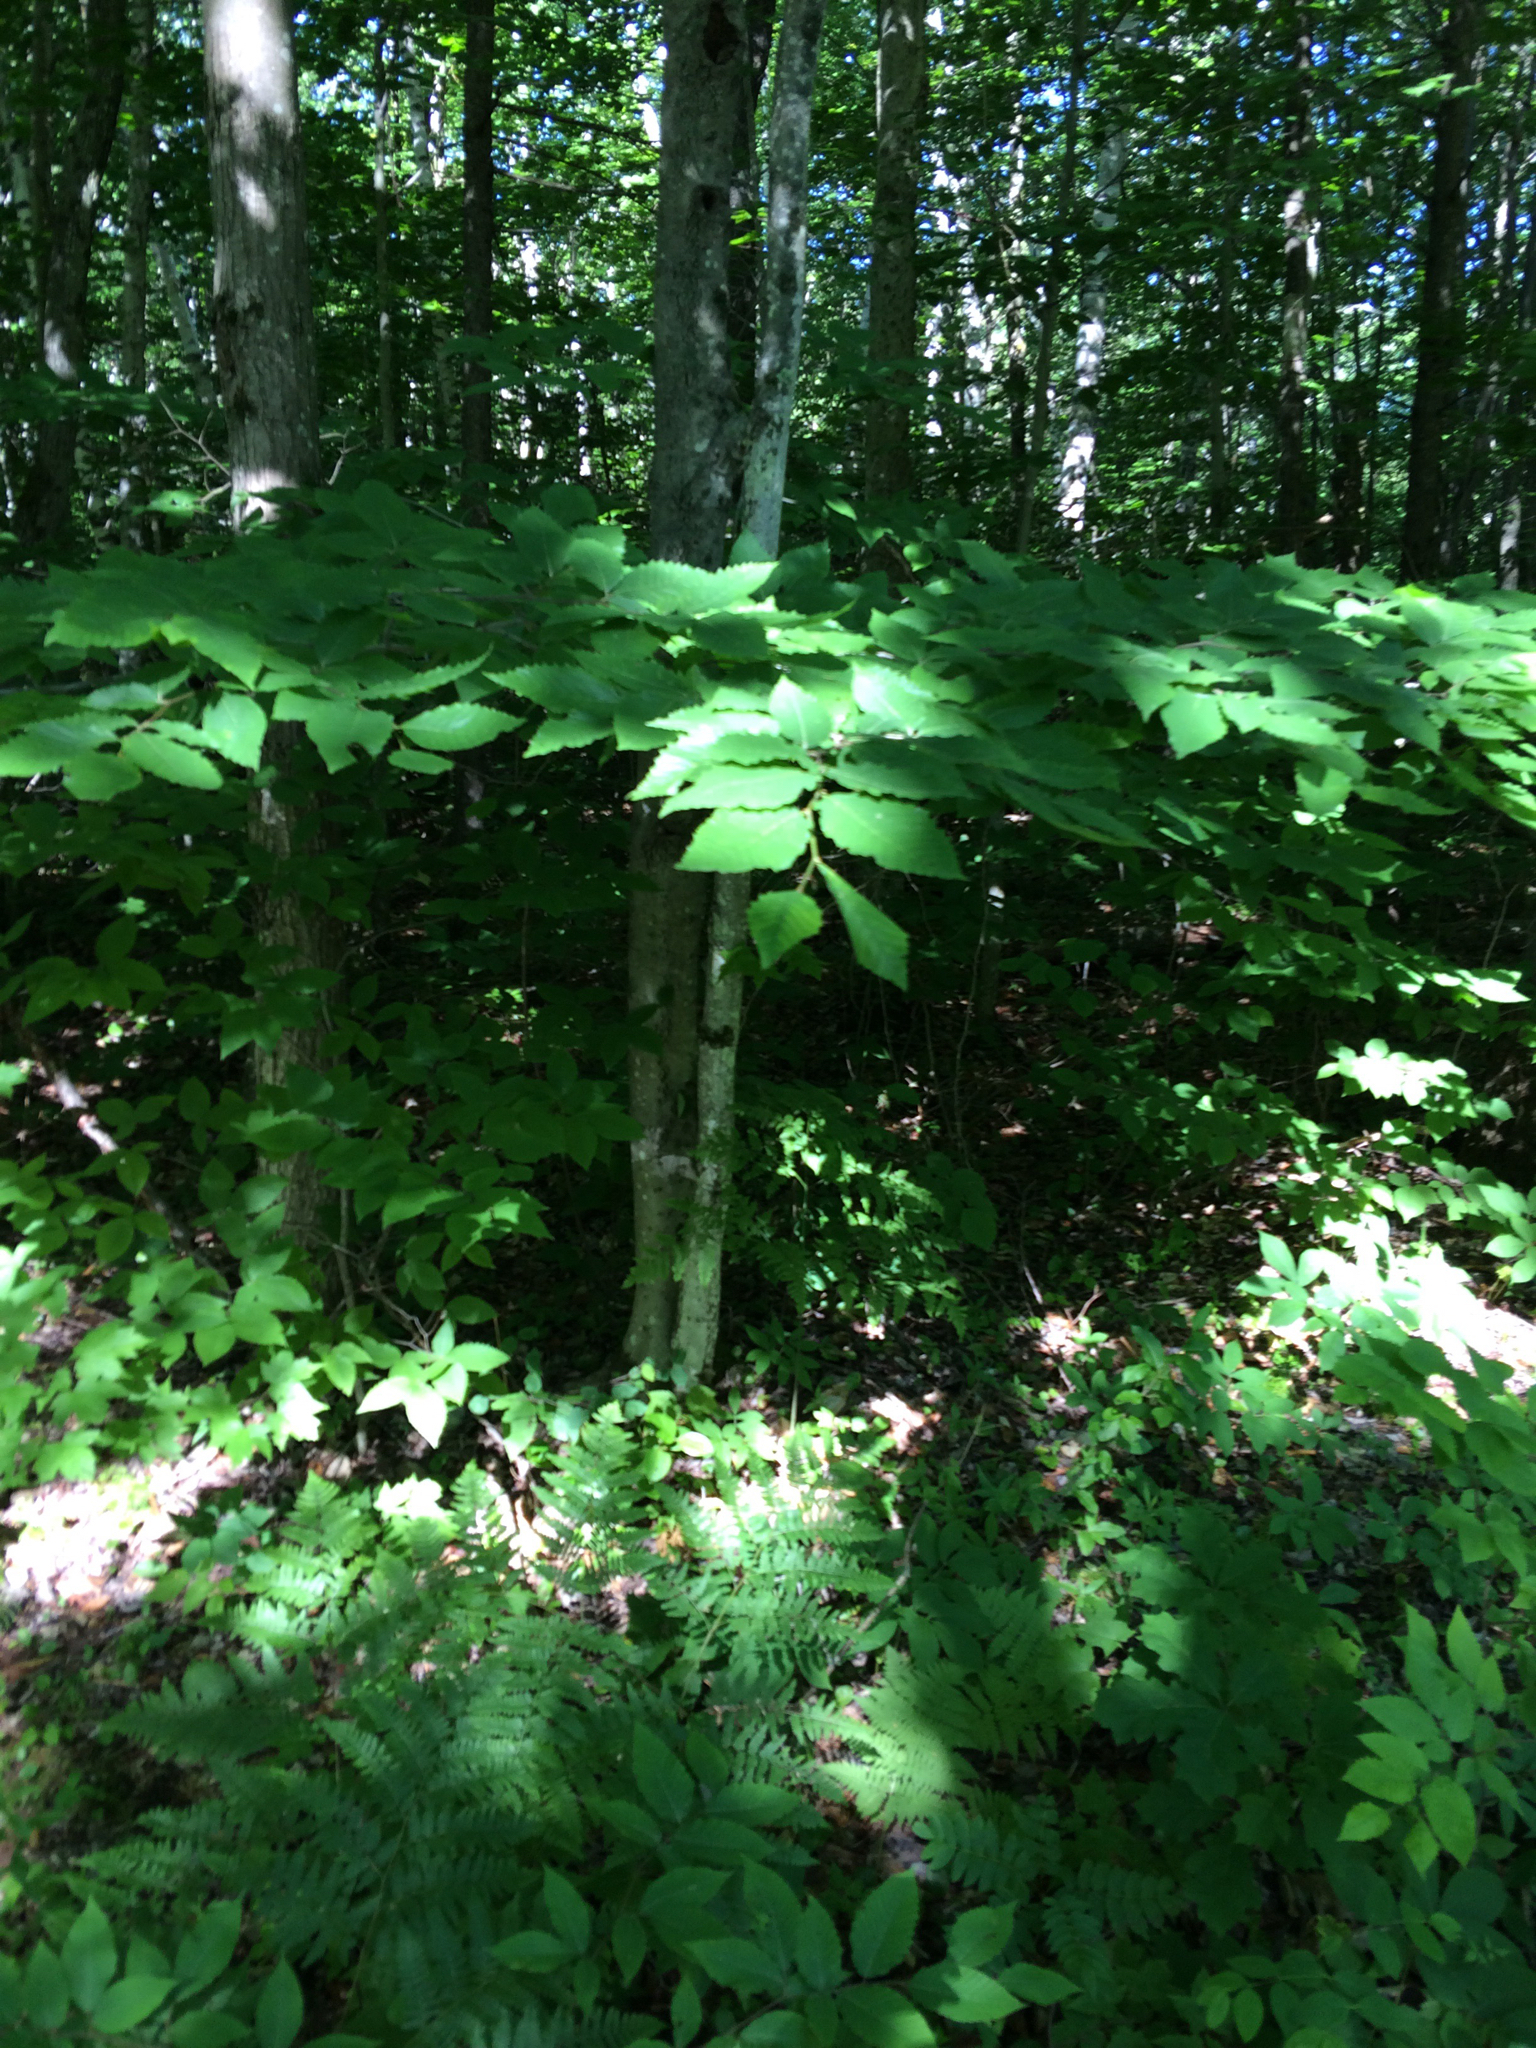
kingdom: Plantae
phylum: Tracheophyta
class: Magnoliopsida
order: Fagales
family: Fagaceae
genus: Fagus
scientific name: Fagus grandifolia
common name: American beech
